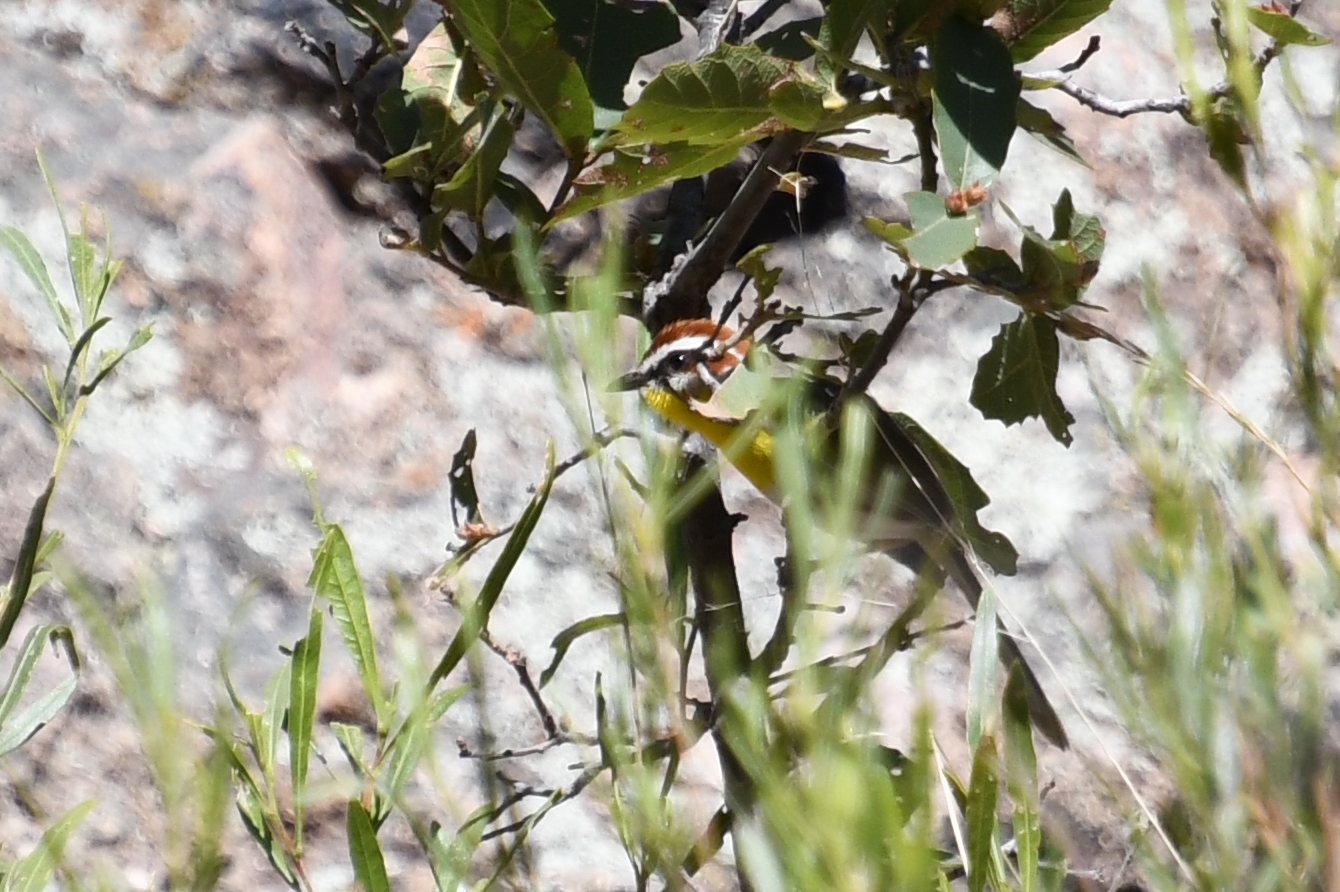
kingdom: Animalia
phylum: Chordata
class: Aves
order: Passeriformes
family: Parulidae
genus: Basileuterus
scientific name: Basileuterus rufifrons
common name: Rufous-capped warbler
